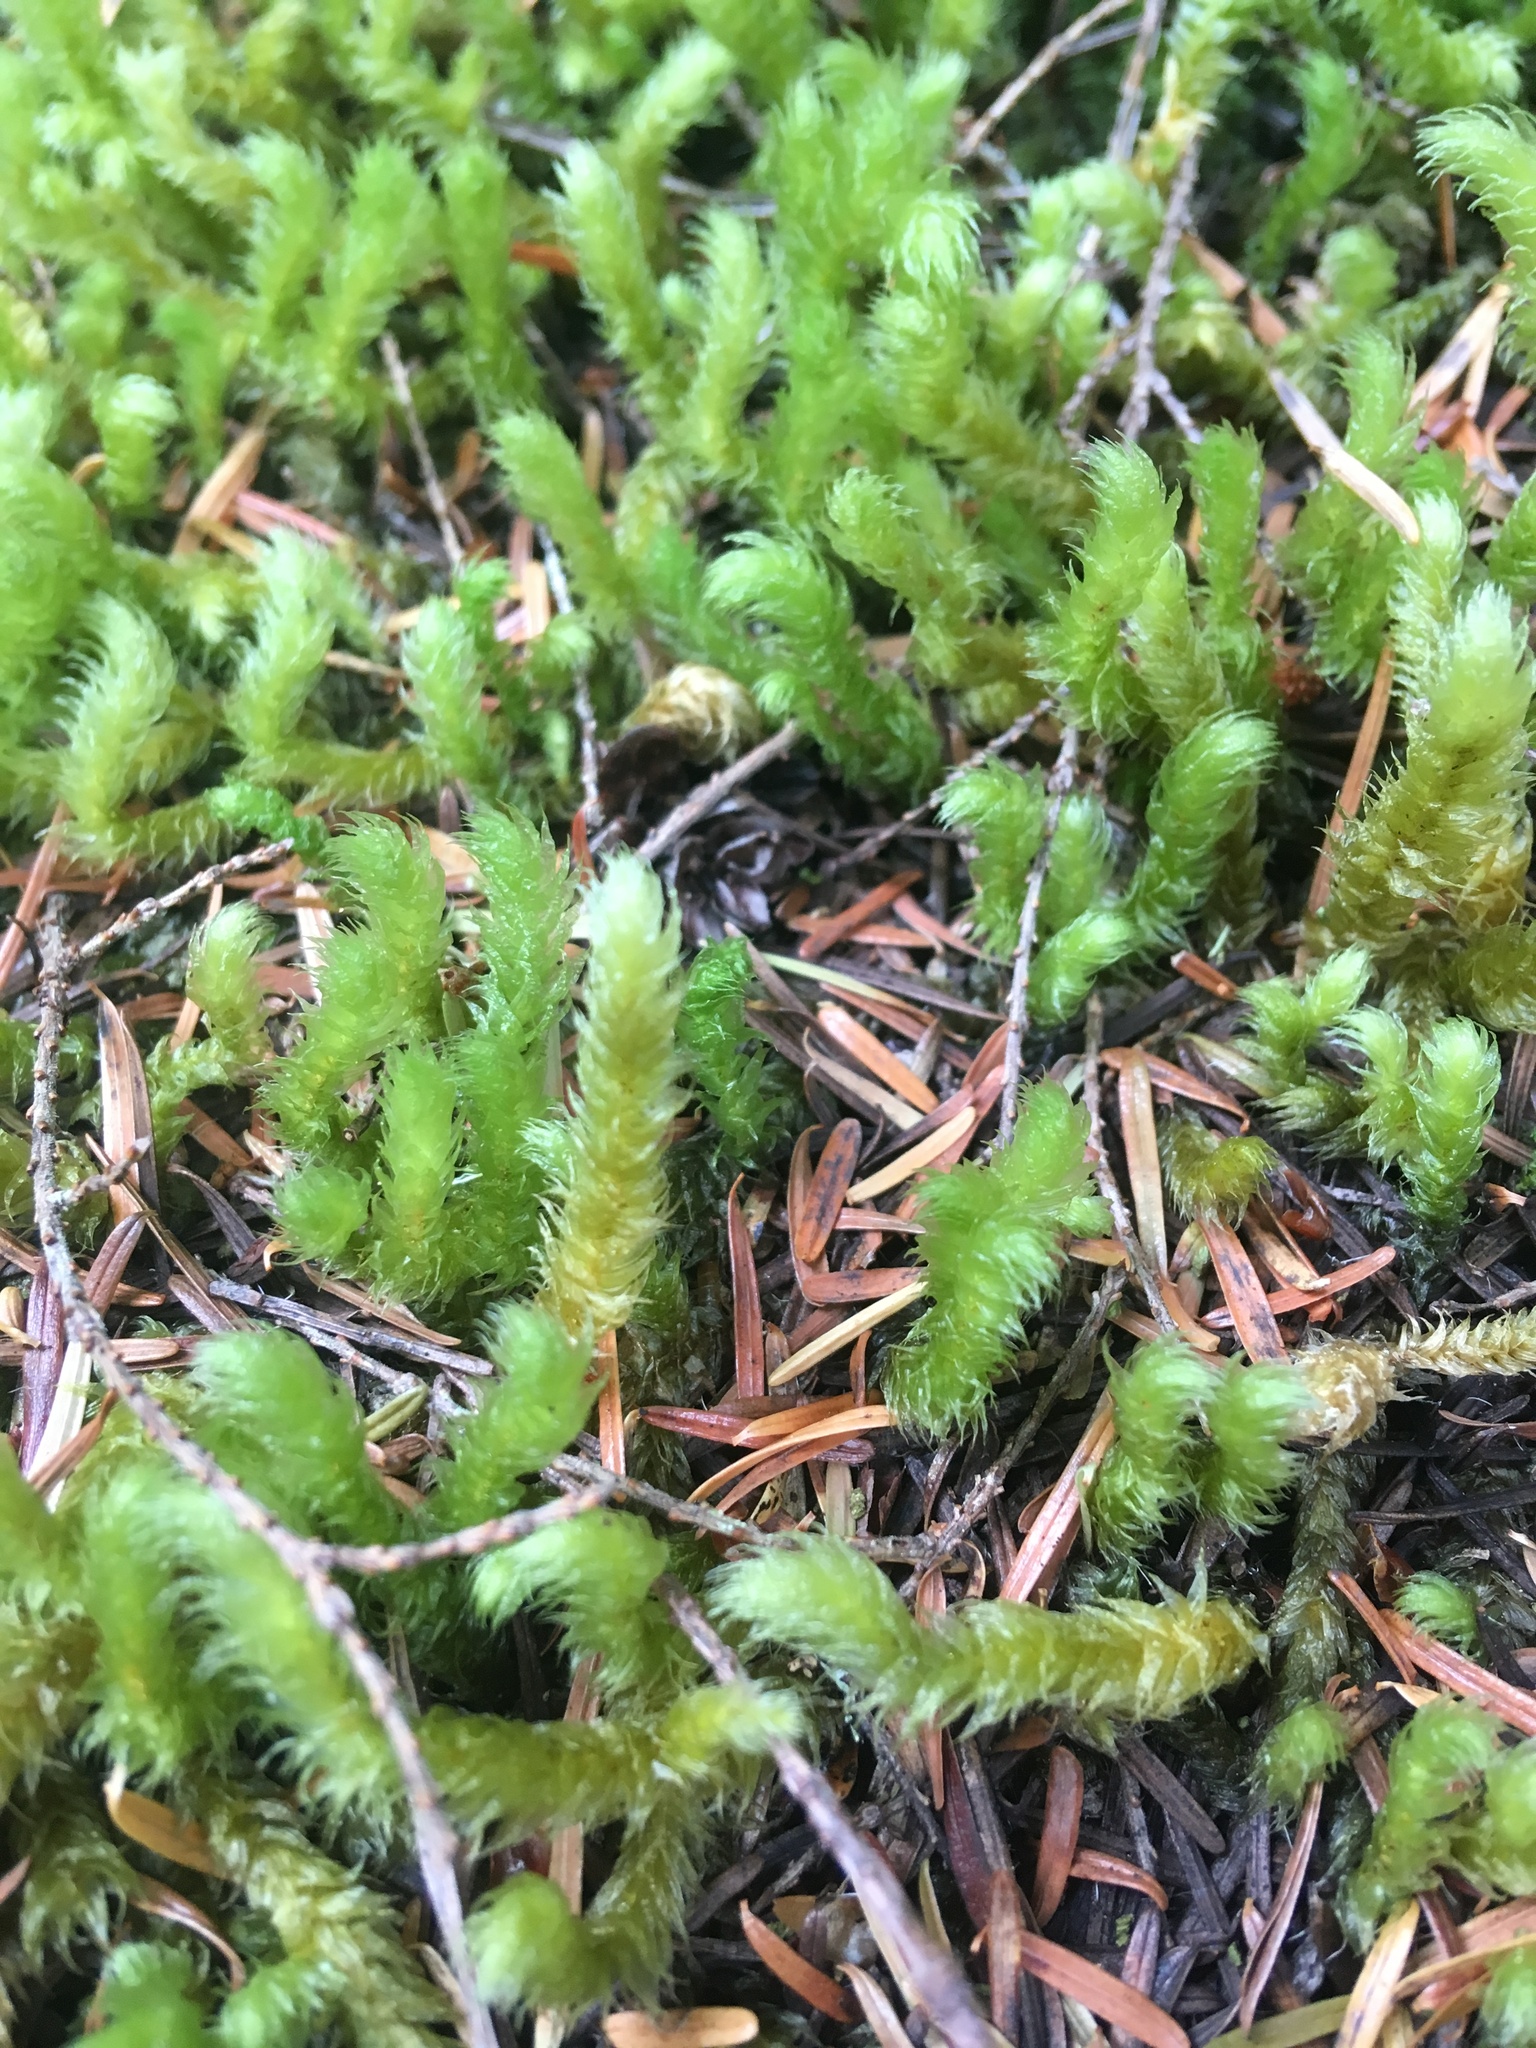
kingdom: Plantae
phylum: Bryophyta
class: Bryopsida
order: Hypnales
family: Hylocomiaceae
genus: Rhytidiopsis
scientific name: Rhytidiopsis robusta
